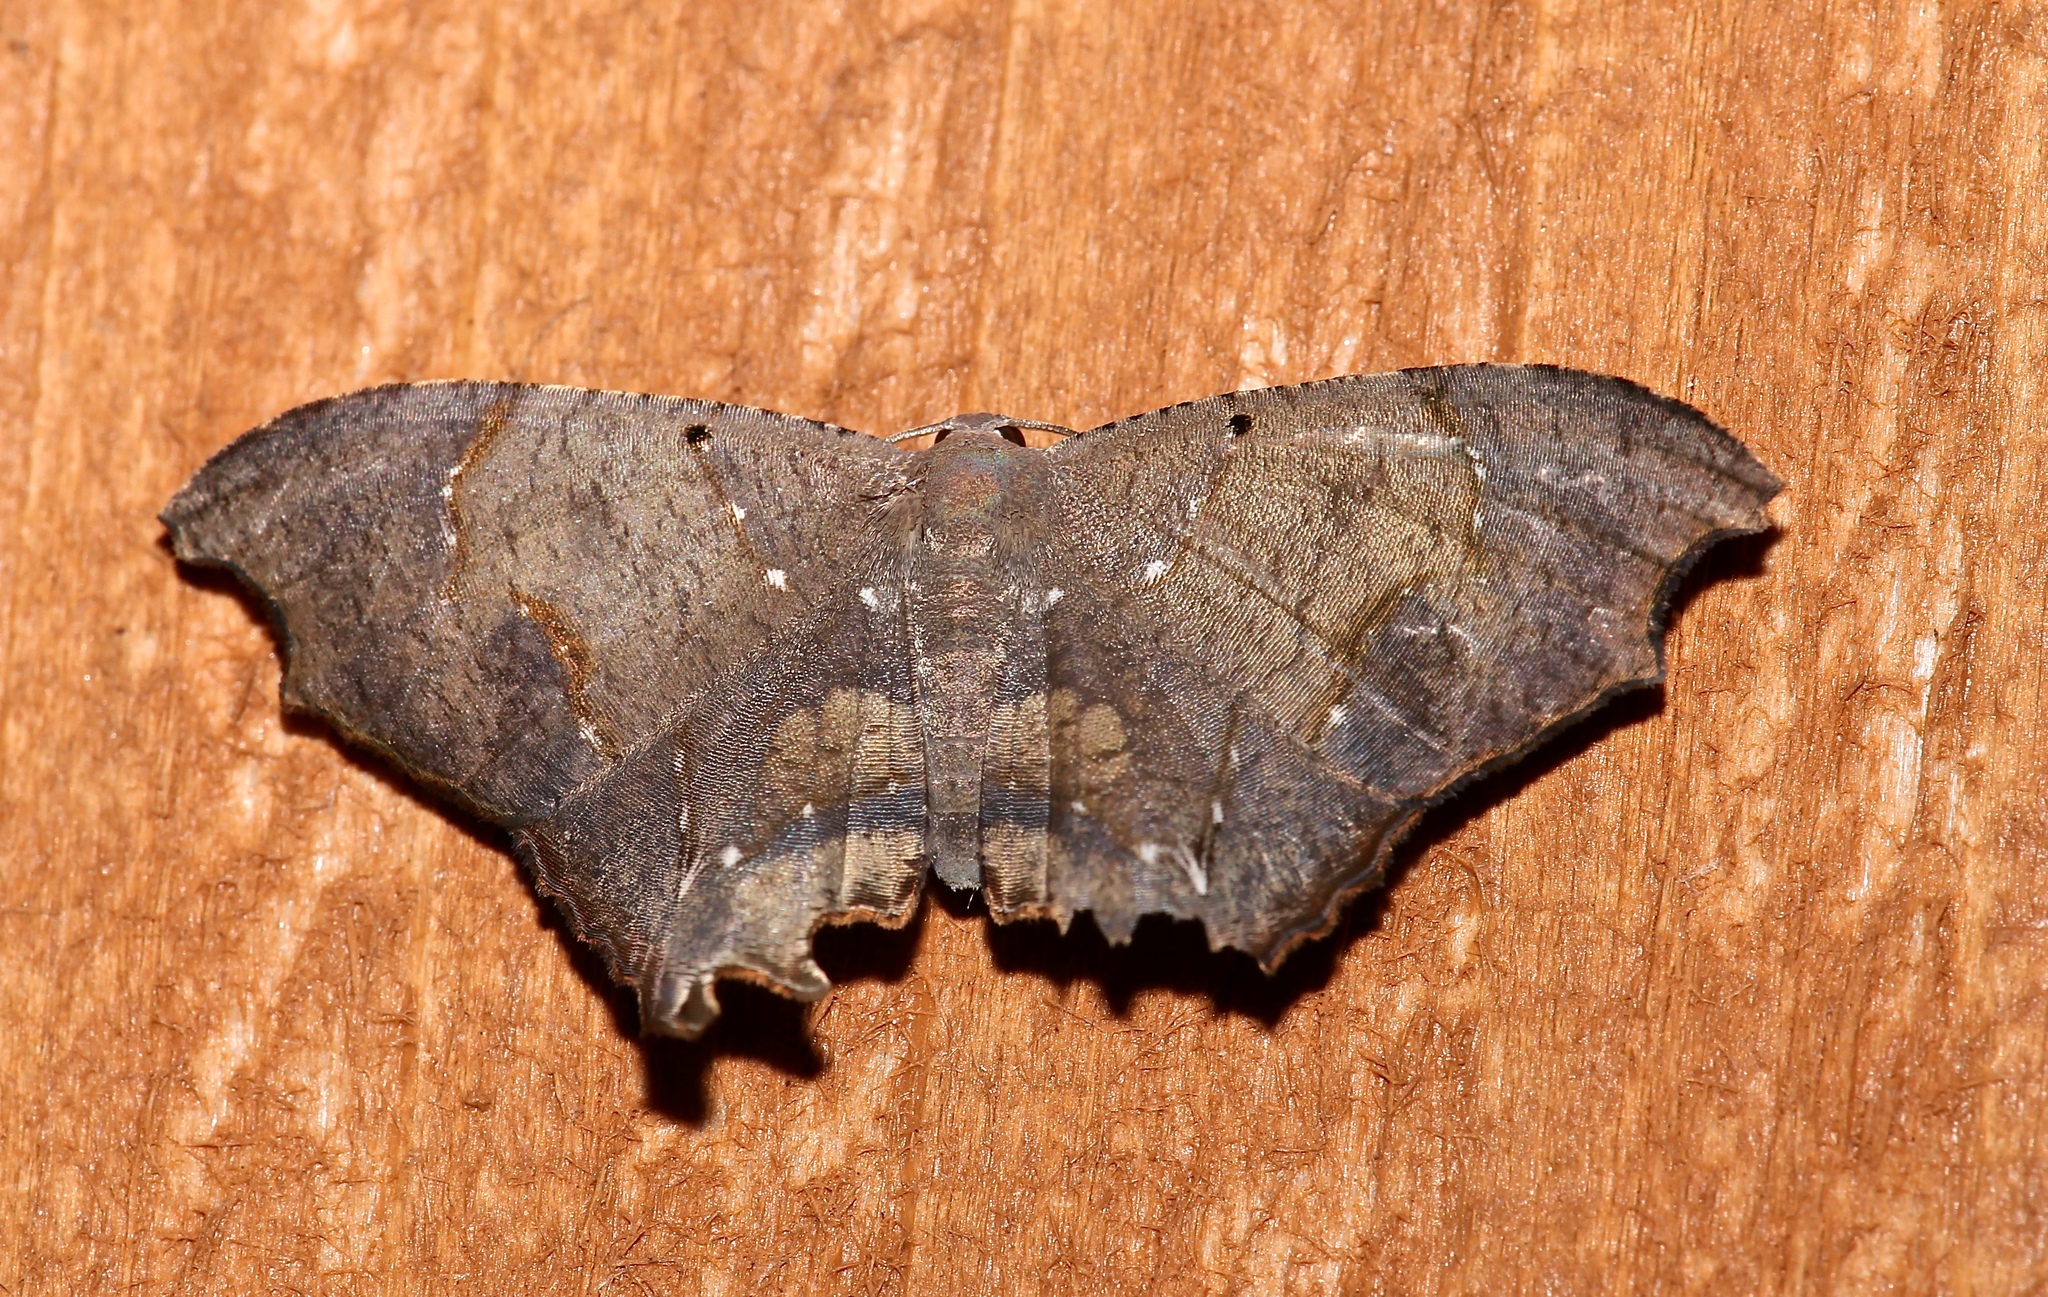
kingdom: Animalia
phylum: Arthropoda
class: Insecta
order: Lepidoptera
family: Uraniidae
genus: Trotorhombia
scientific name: Trotorhombia metachromata
